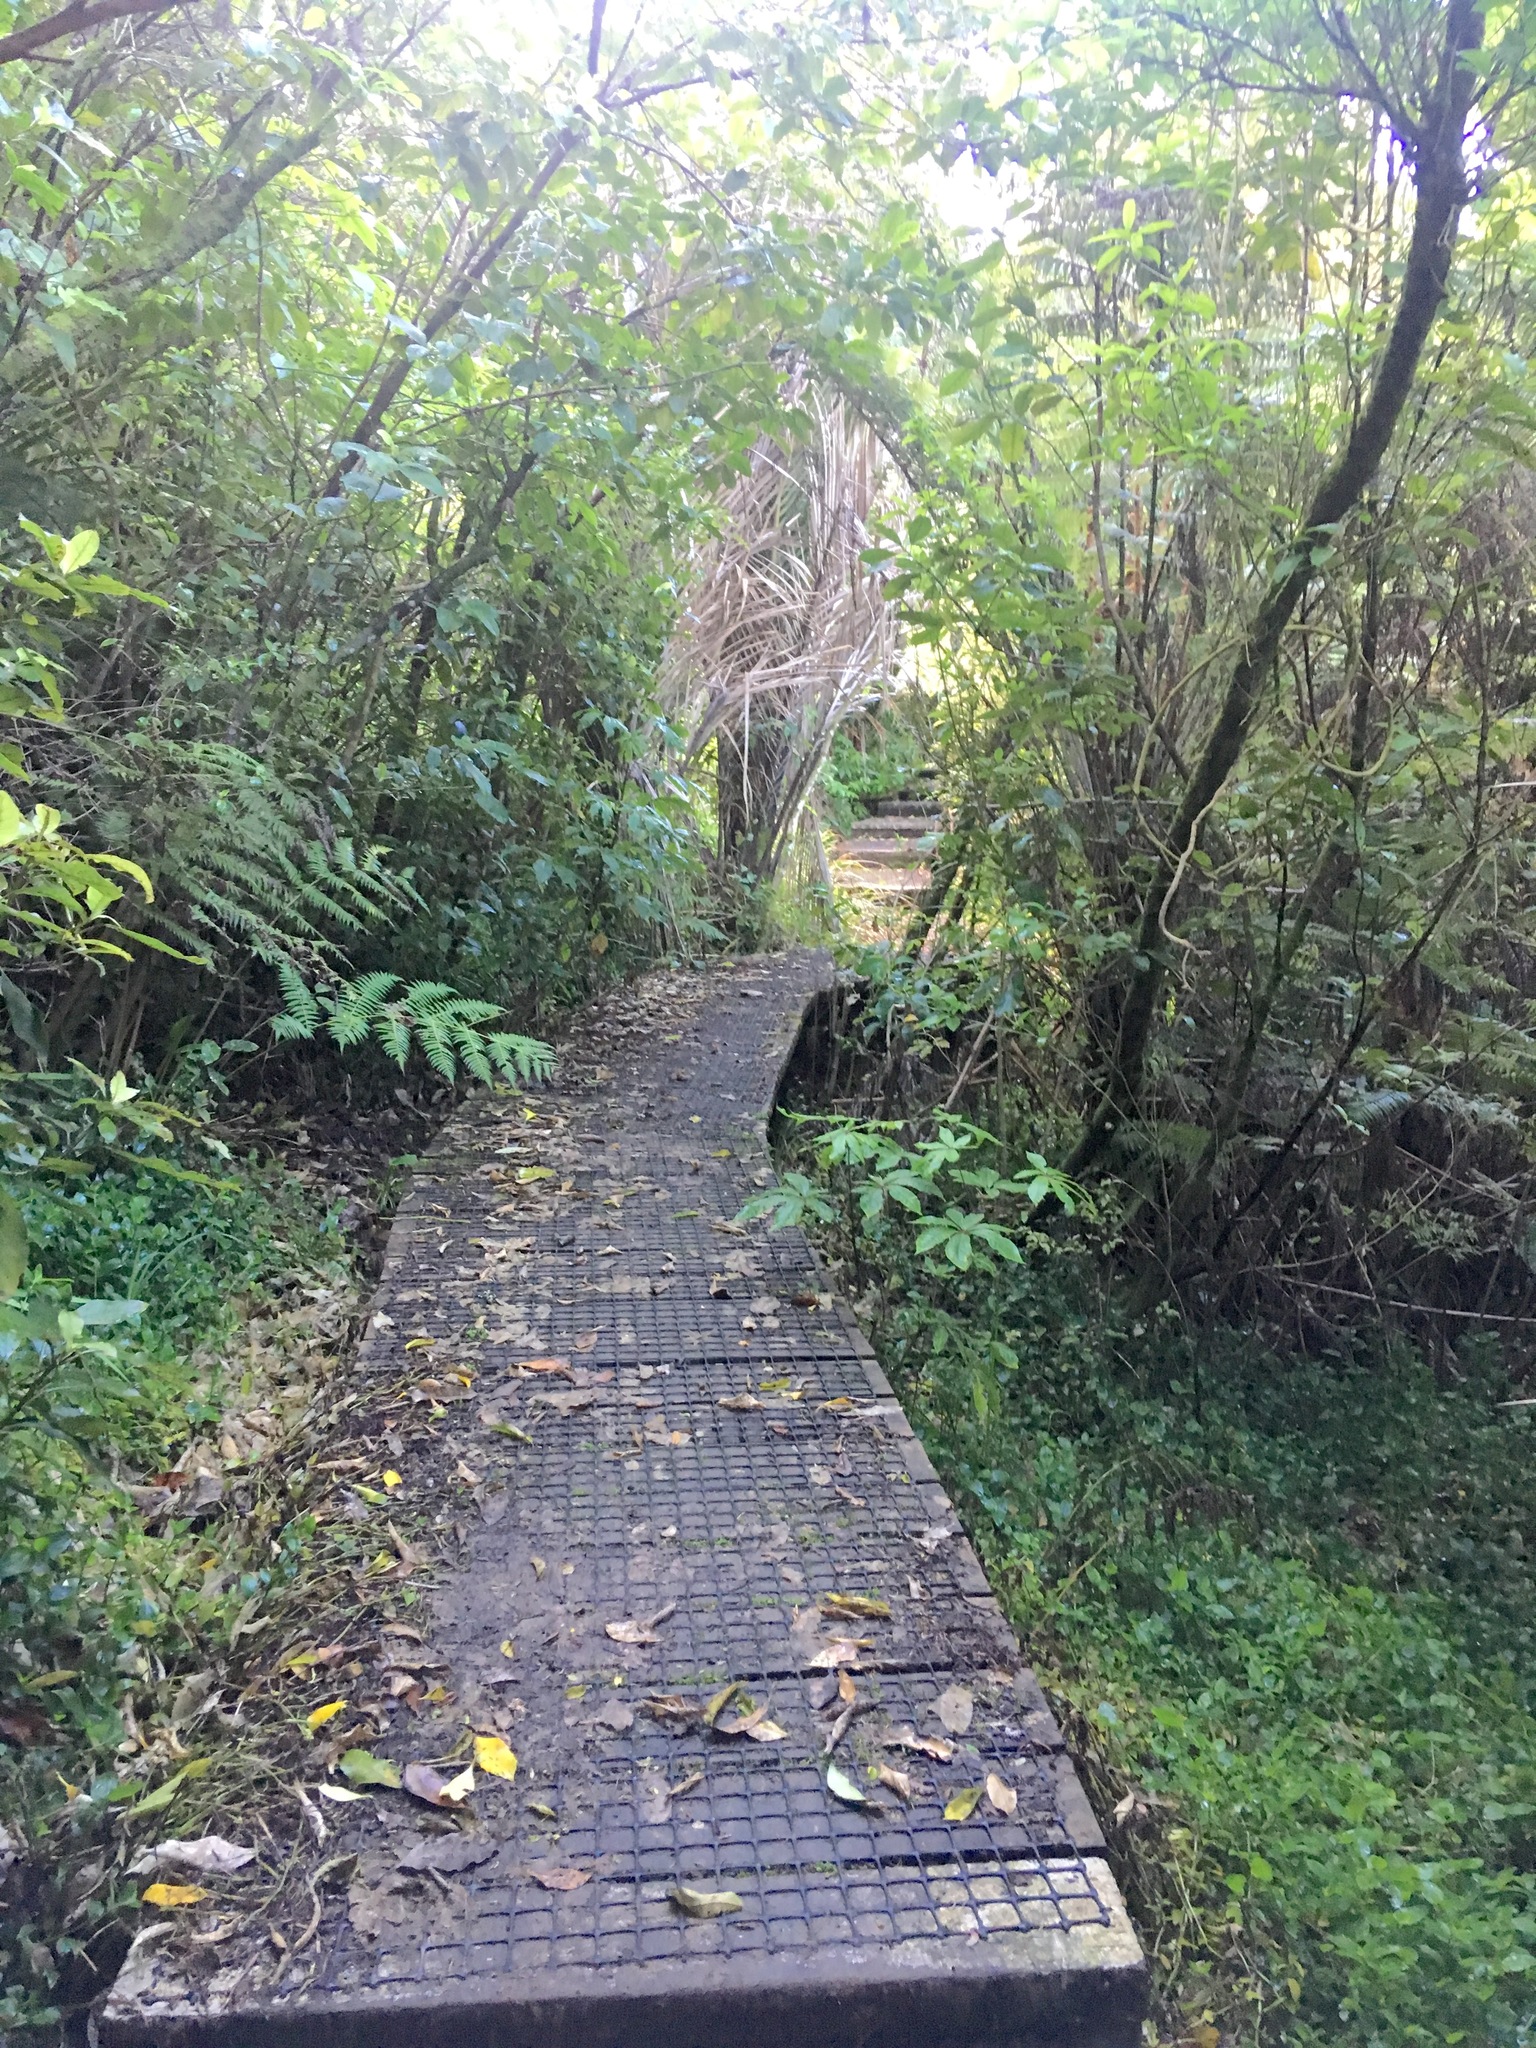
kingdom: Plantae
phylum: Tracheophyta
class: Magnoliopsida
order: Apiales
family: Araliaceae
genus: Schefflera
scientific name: Schefflera digitata
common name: Pate
